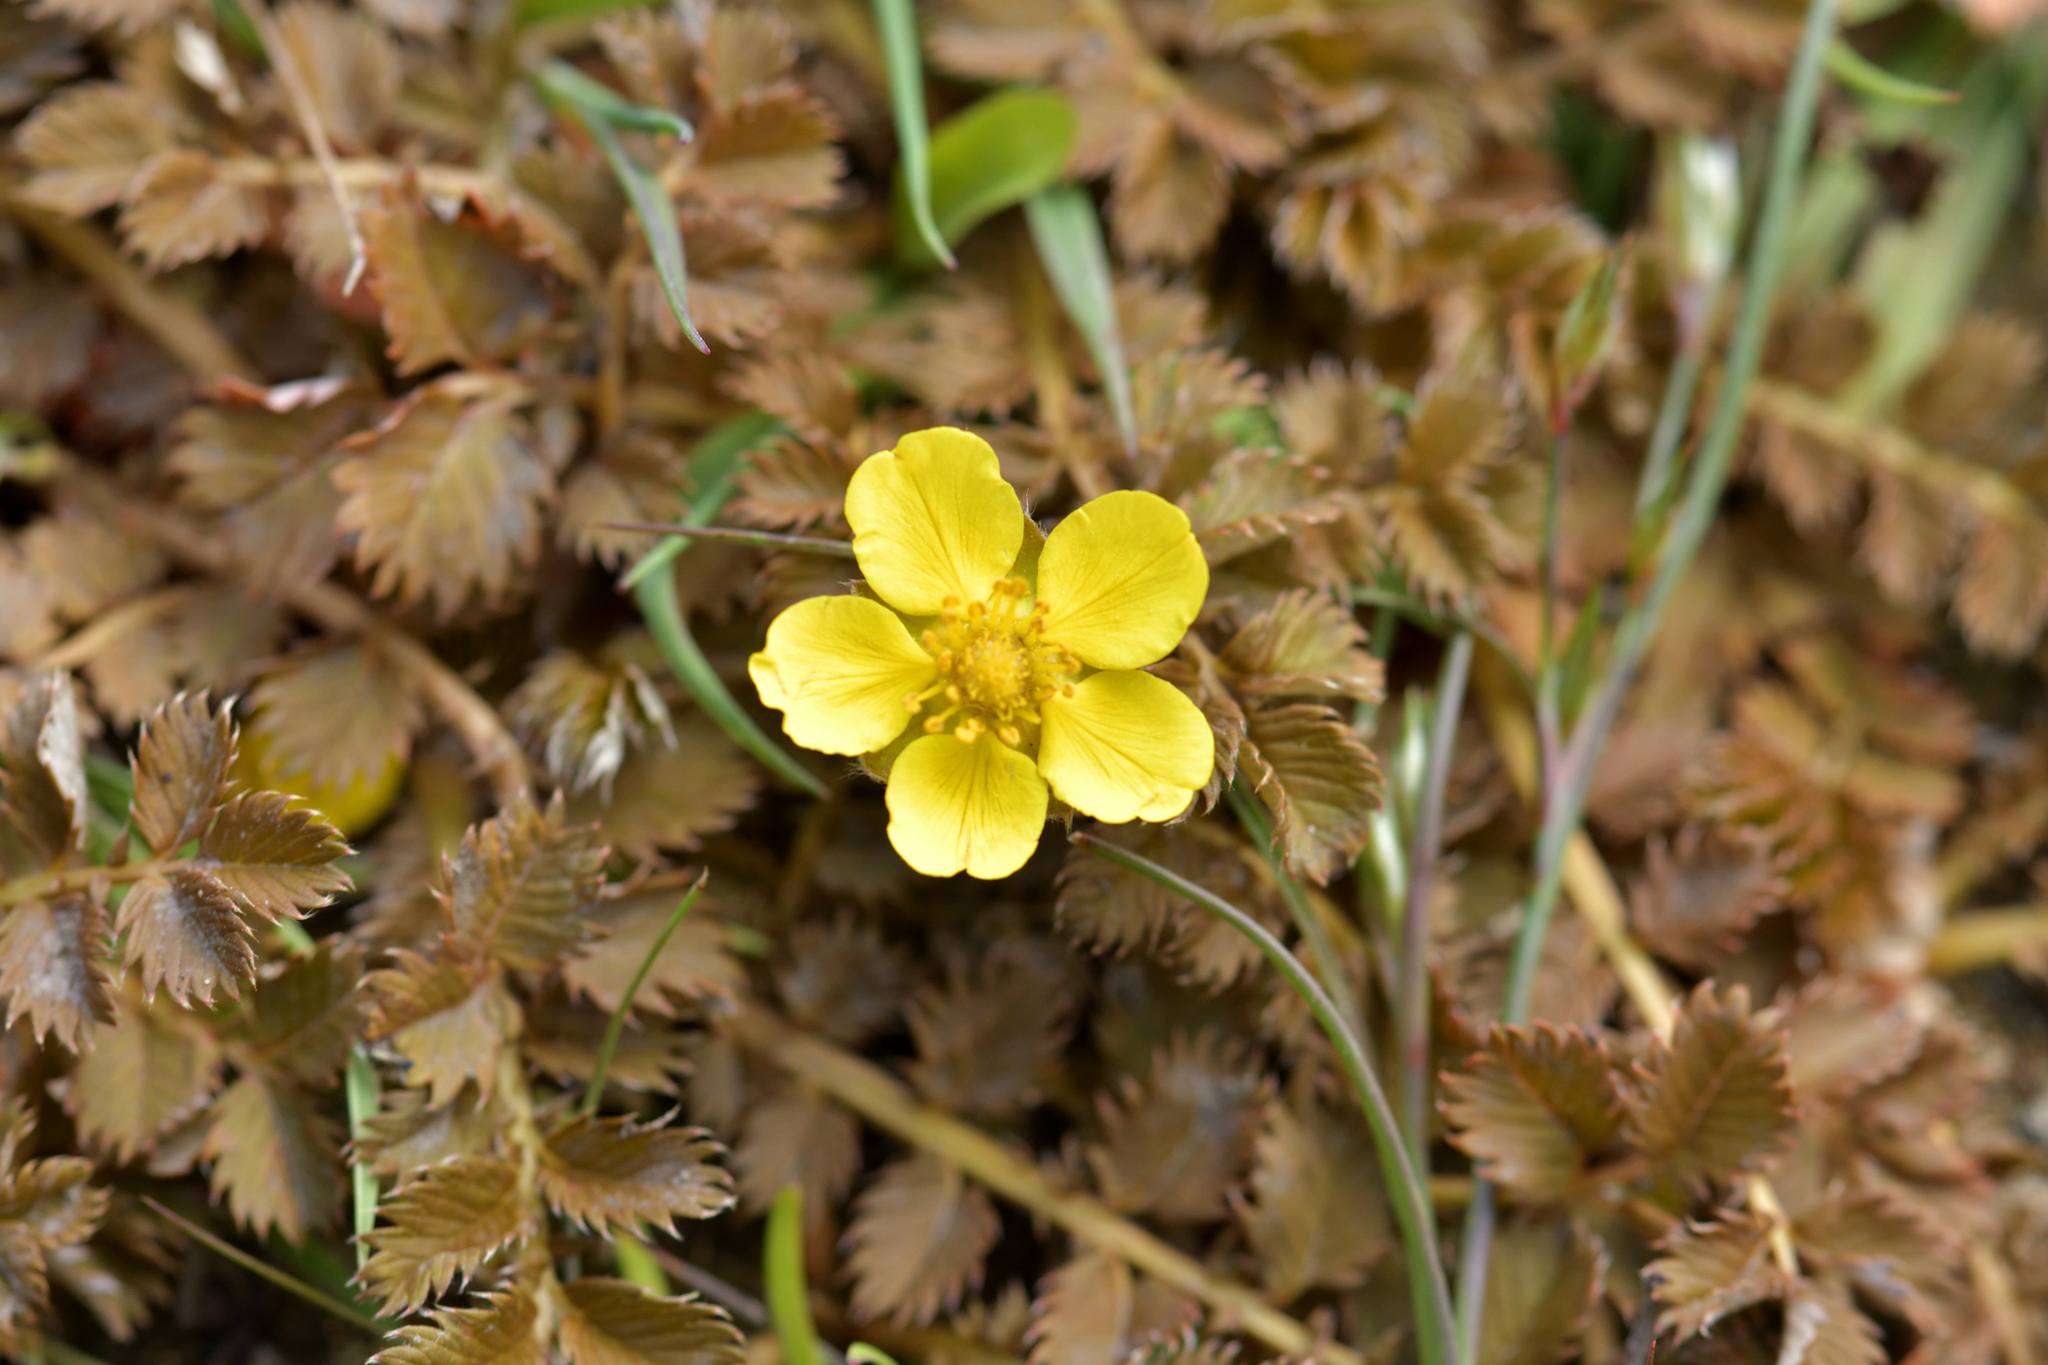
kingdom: Plantae
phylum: Tracheophyta
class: Magnoliopsida
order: Rosales
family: Rosaceae
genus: Argentina
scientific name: Argentina anserinoides
